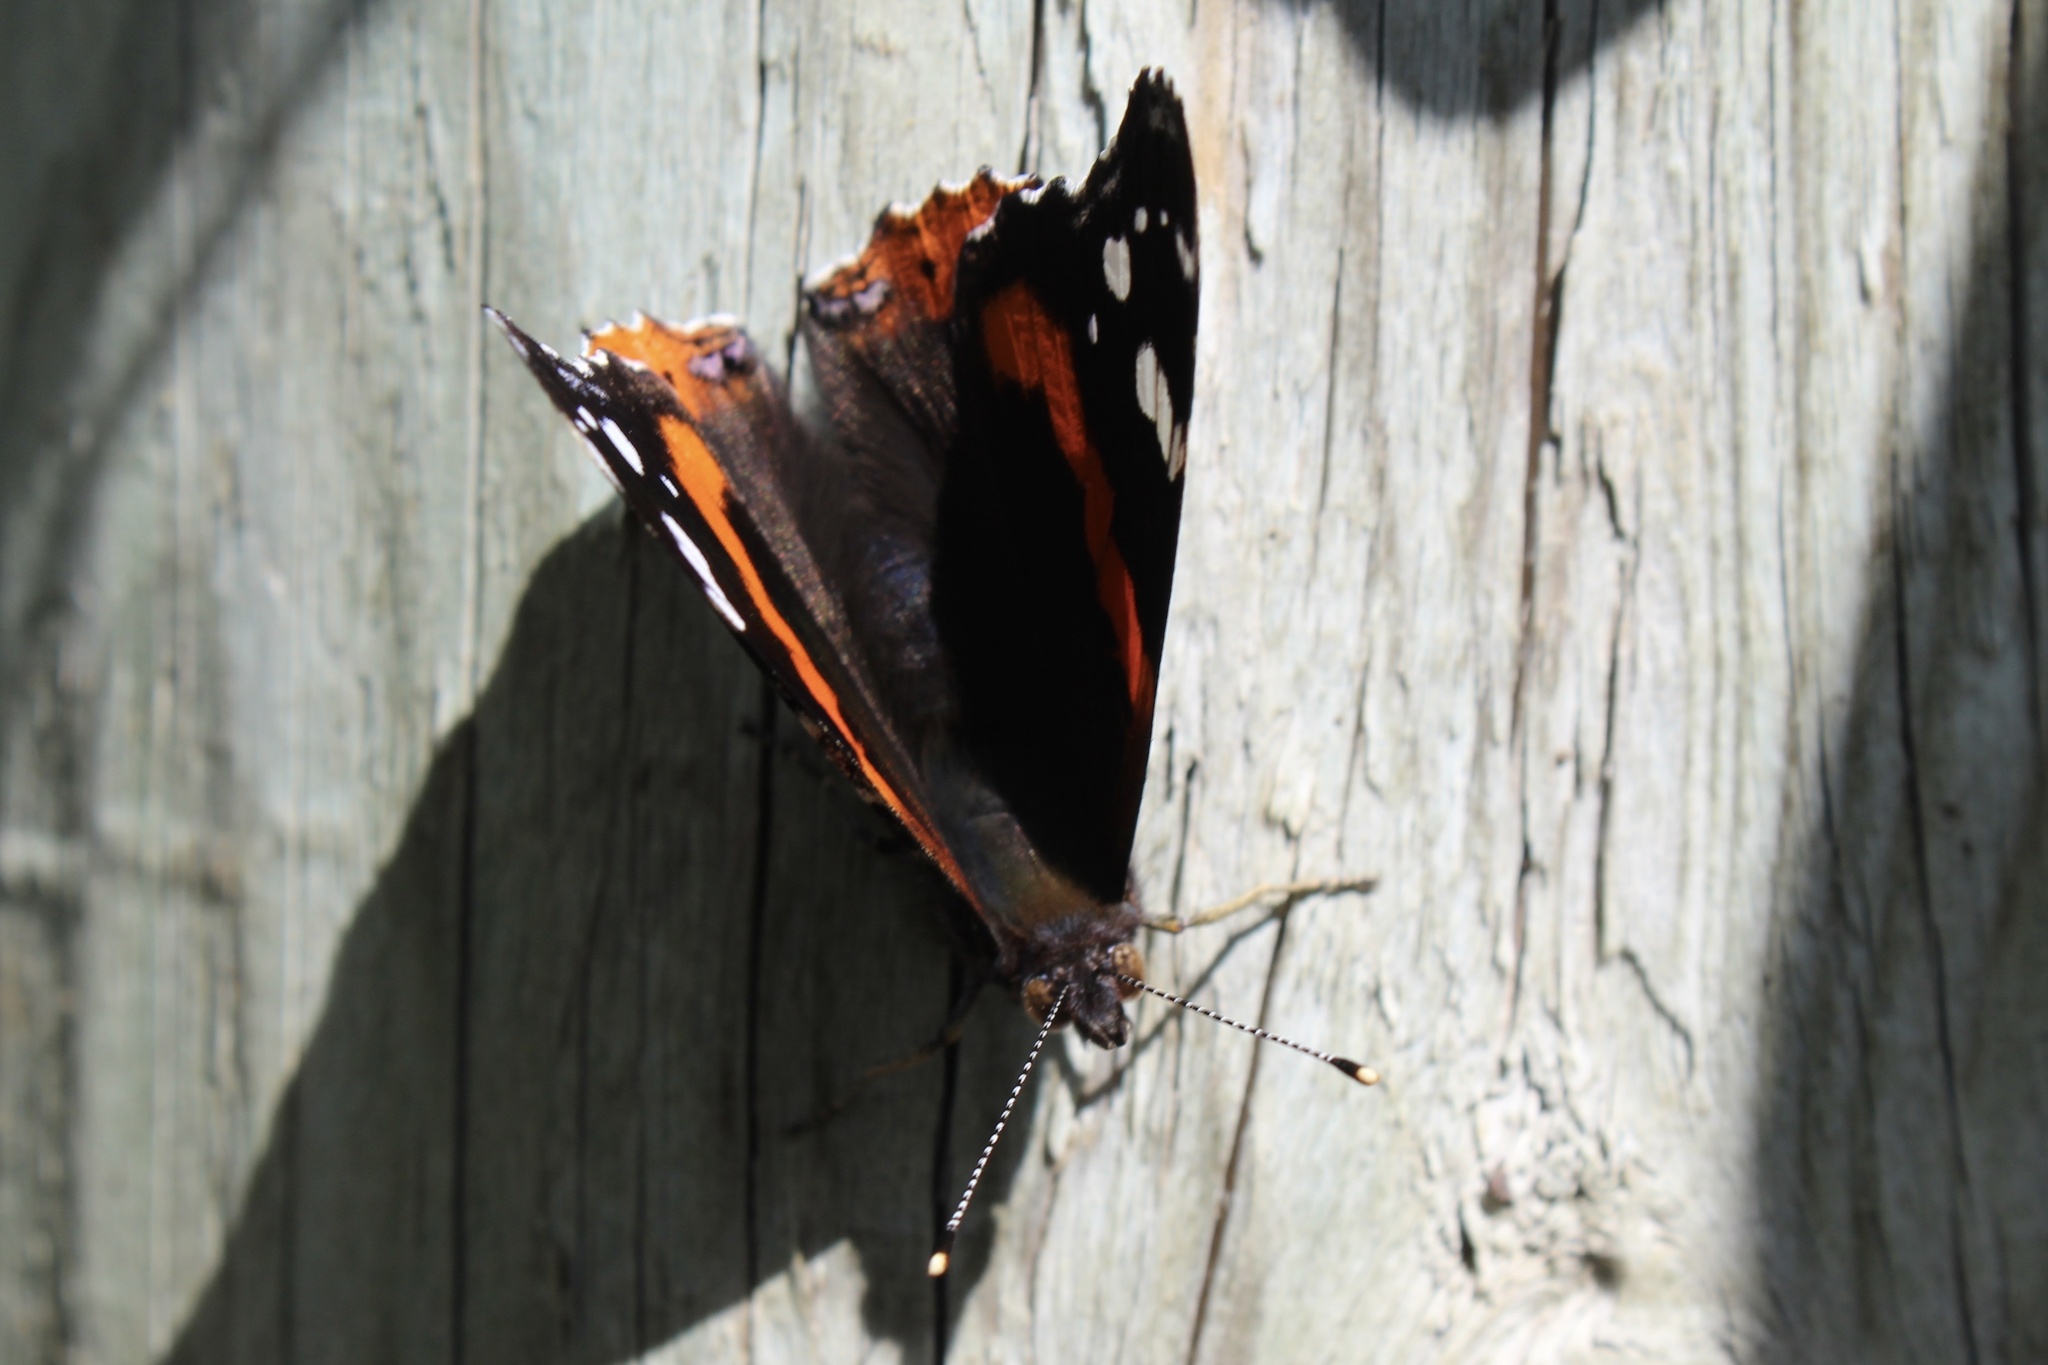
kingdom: Animalia
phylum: Arthropoda
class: Insecta
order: Lepidoptera
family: Nymphalidae
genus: Vanessa
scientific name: Vanessa atalanta
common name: Red admiral
